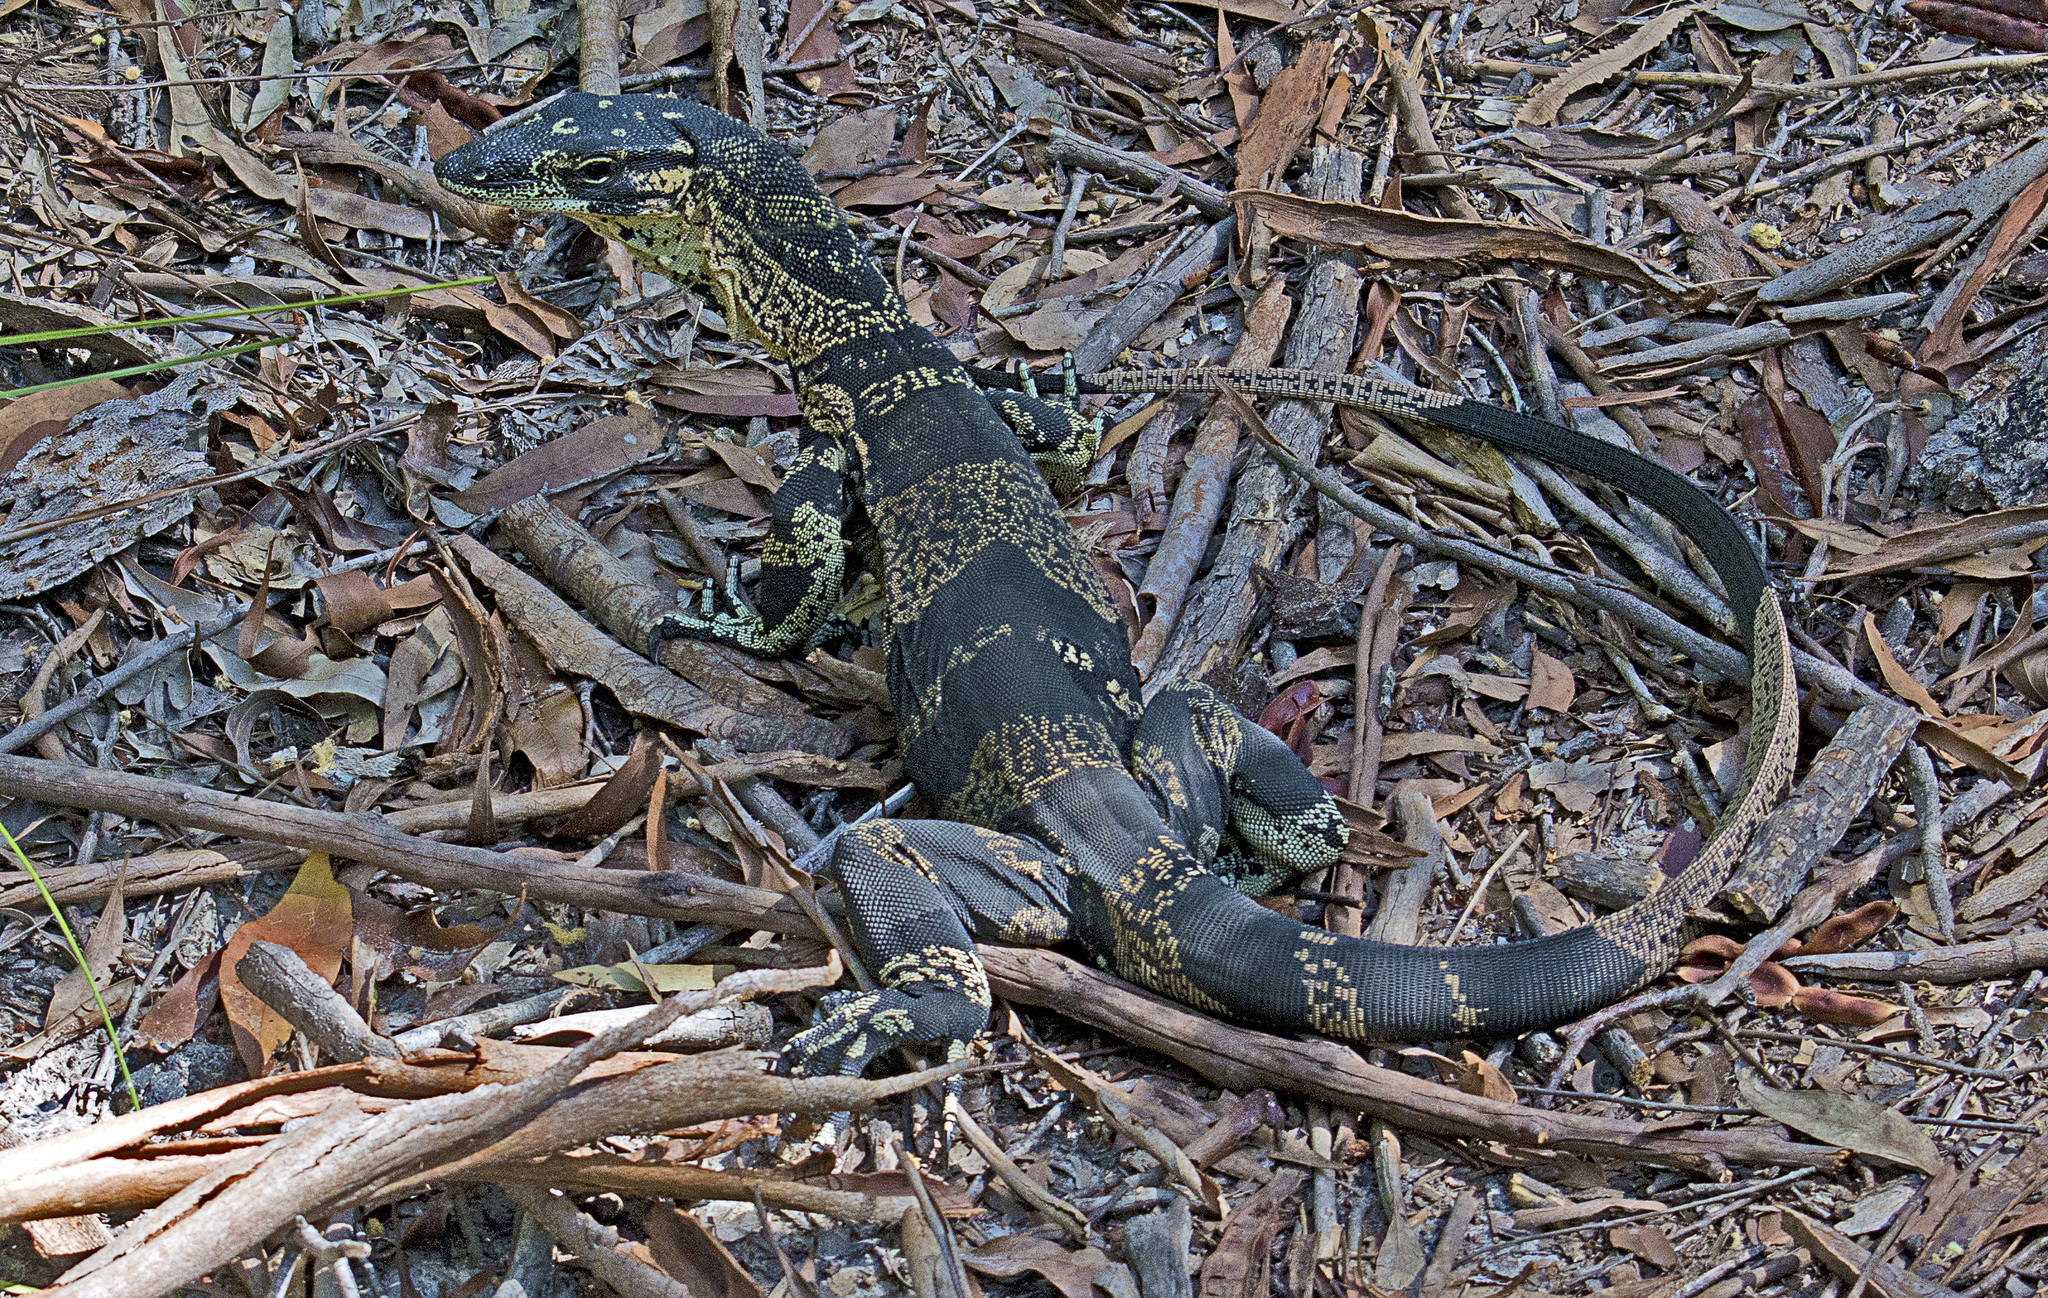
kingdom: Animalia
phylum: Chordata
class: Squamata
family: Varanidae
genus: Varanus
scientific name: Varanus varius
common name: Lace monitor
